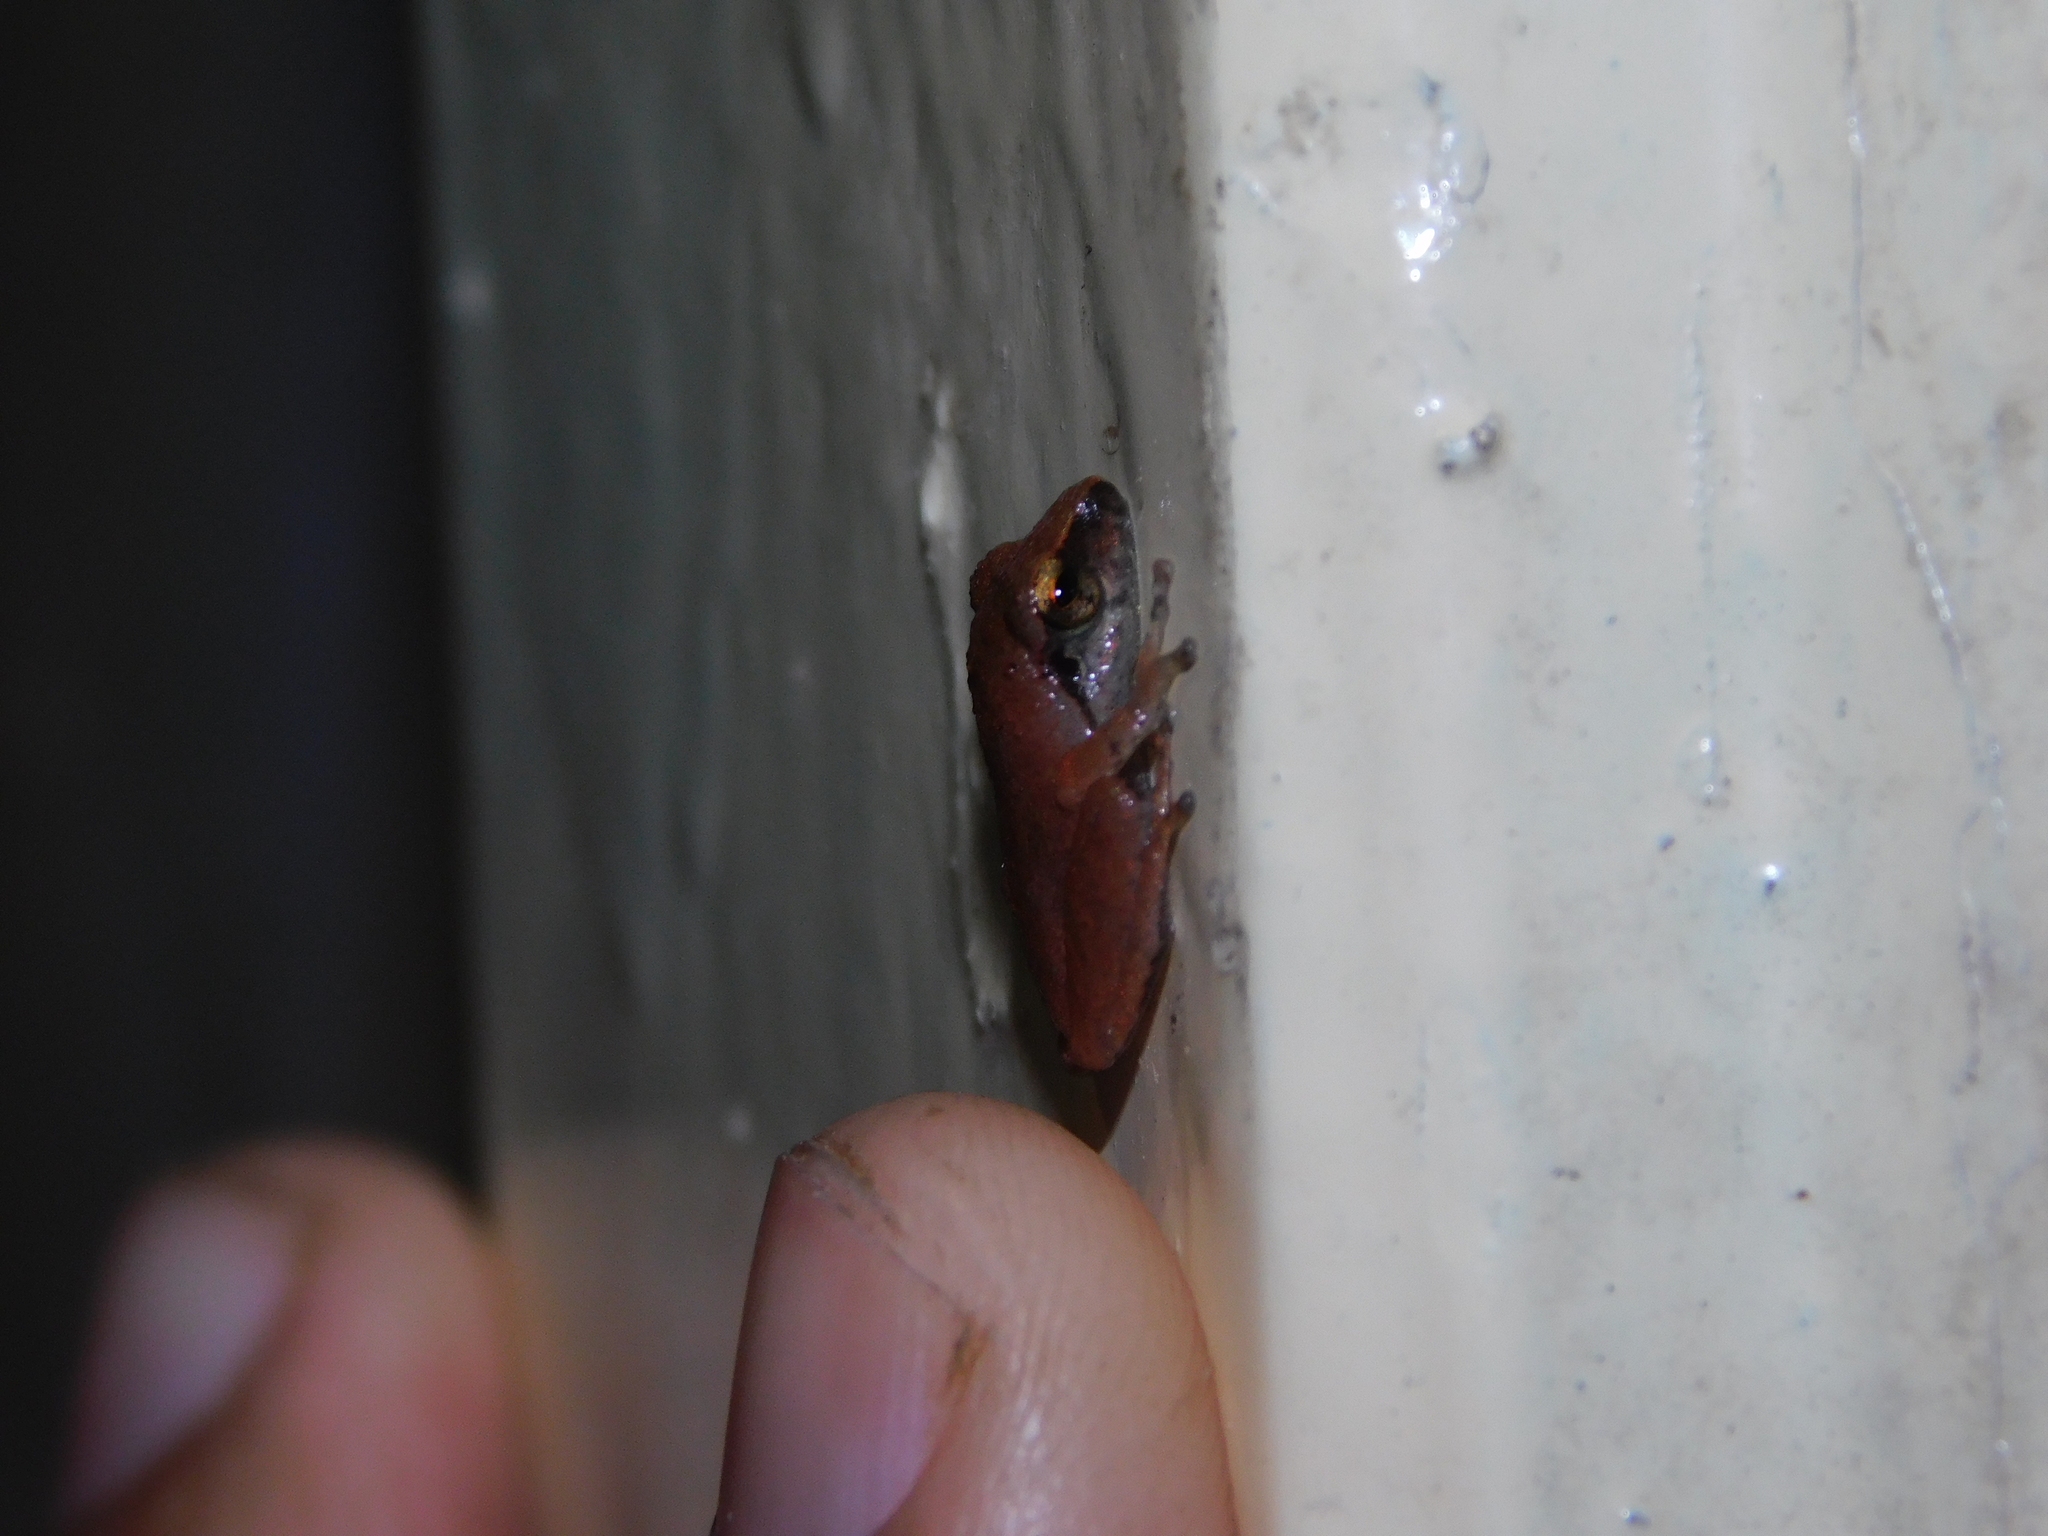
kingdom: Animalia
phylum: Chordata
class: Amphibia
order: Anura
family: Rhacophoridae
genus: Pseudophilautus
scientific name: Pseudophilautus wynaadensis
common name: Dark-eared bush frog
